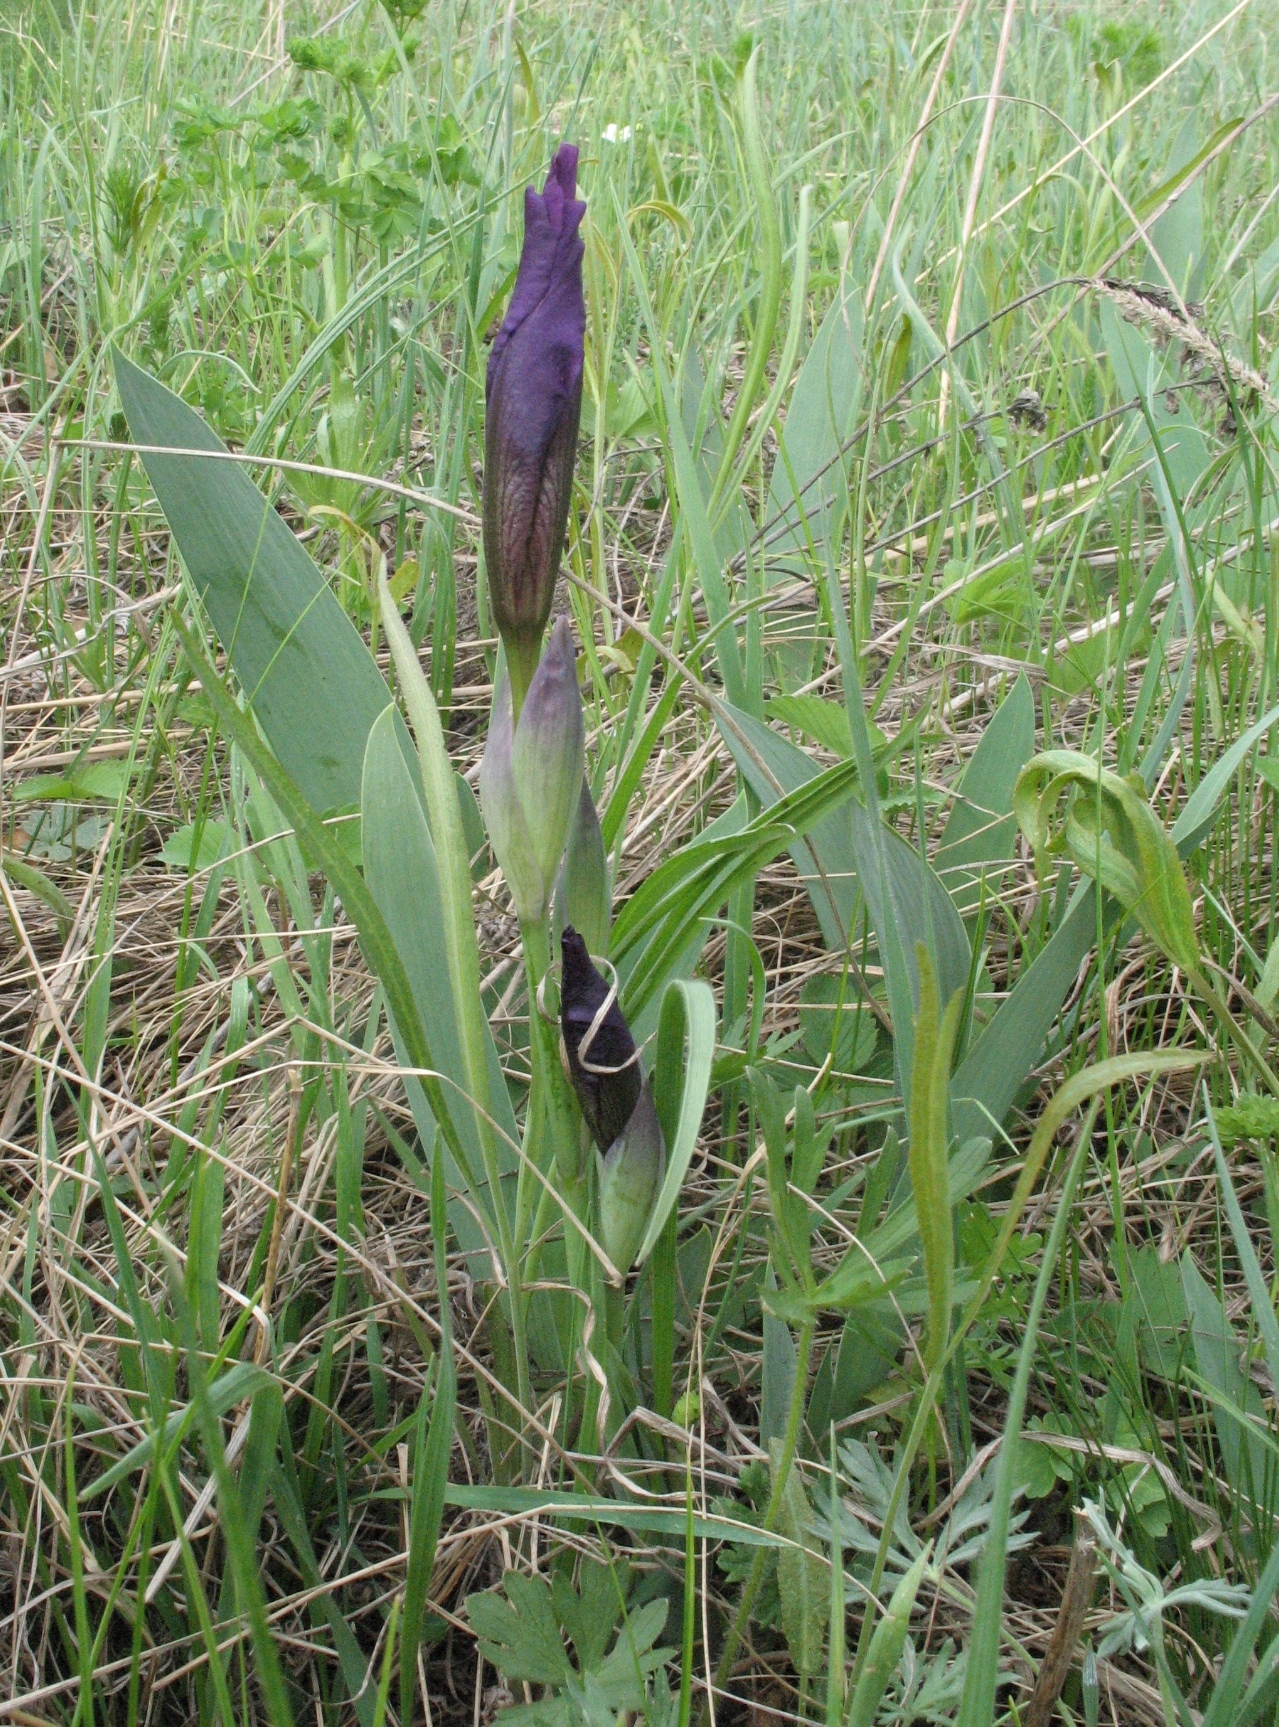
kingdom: Plantae
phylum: Tracheophyta
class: Liliopsida
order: Asparagales
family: Iridaceae
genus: Iris
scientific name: Iris aphylla
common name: Stool iris
